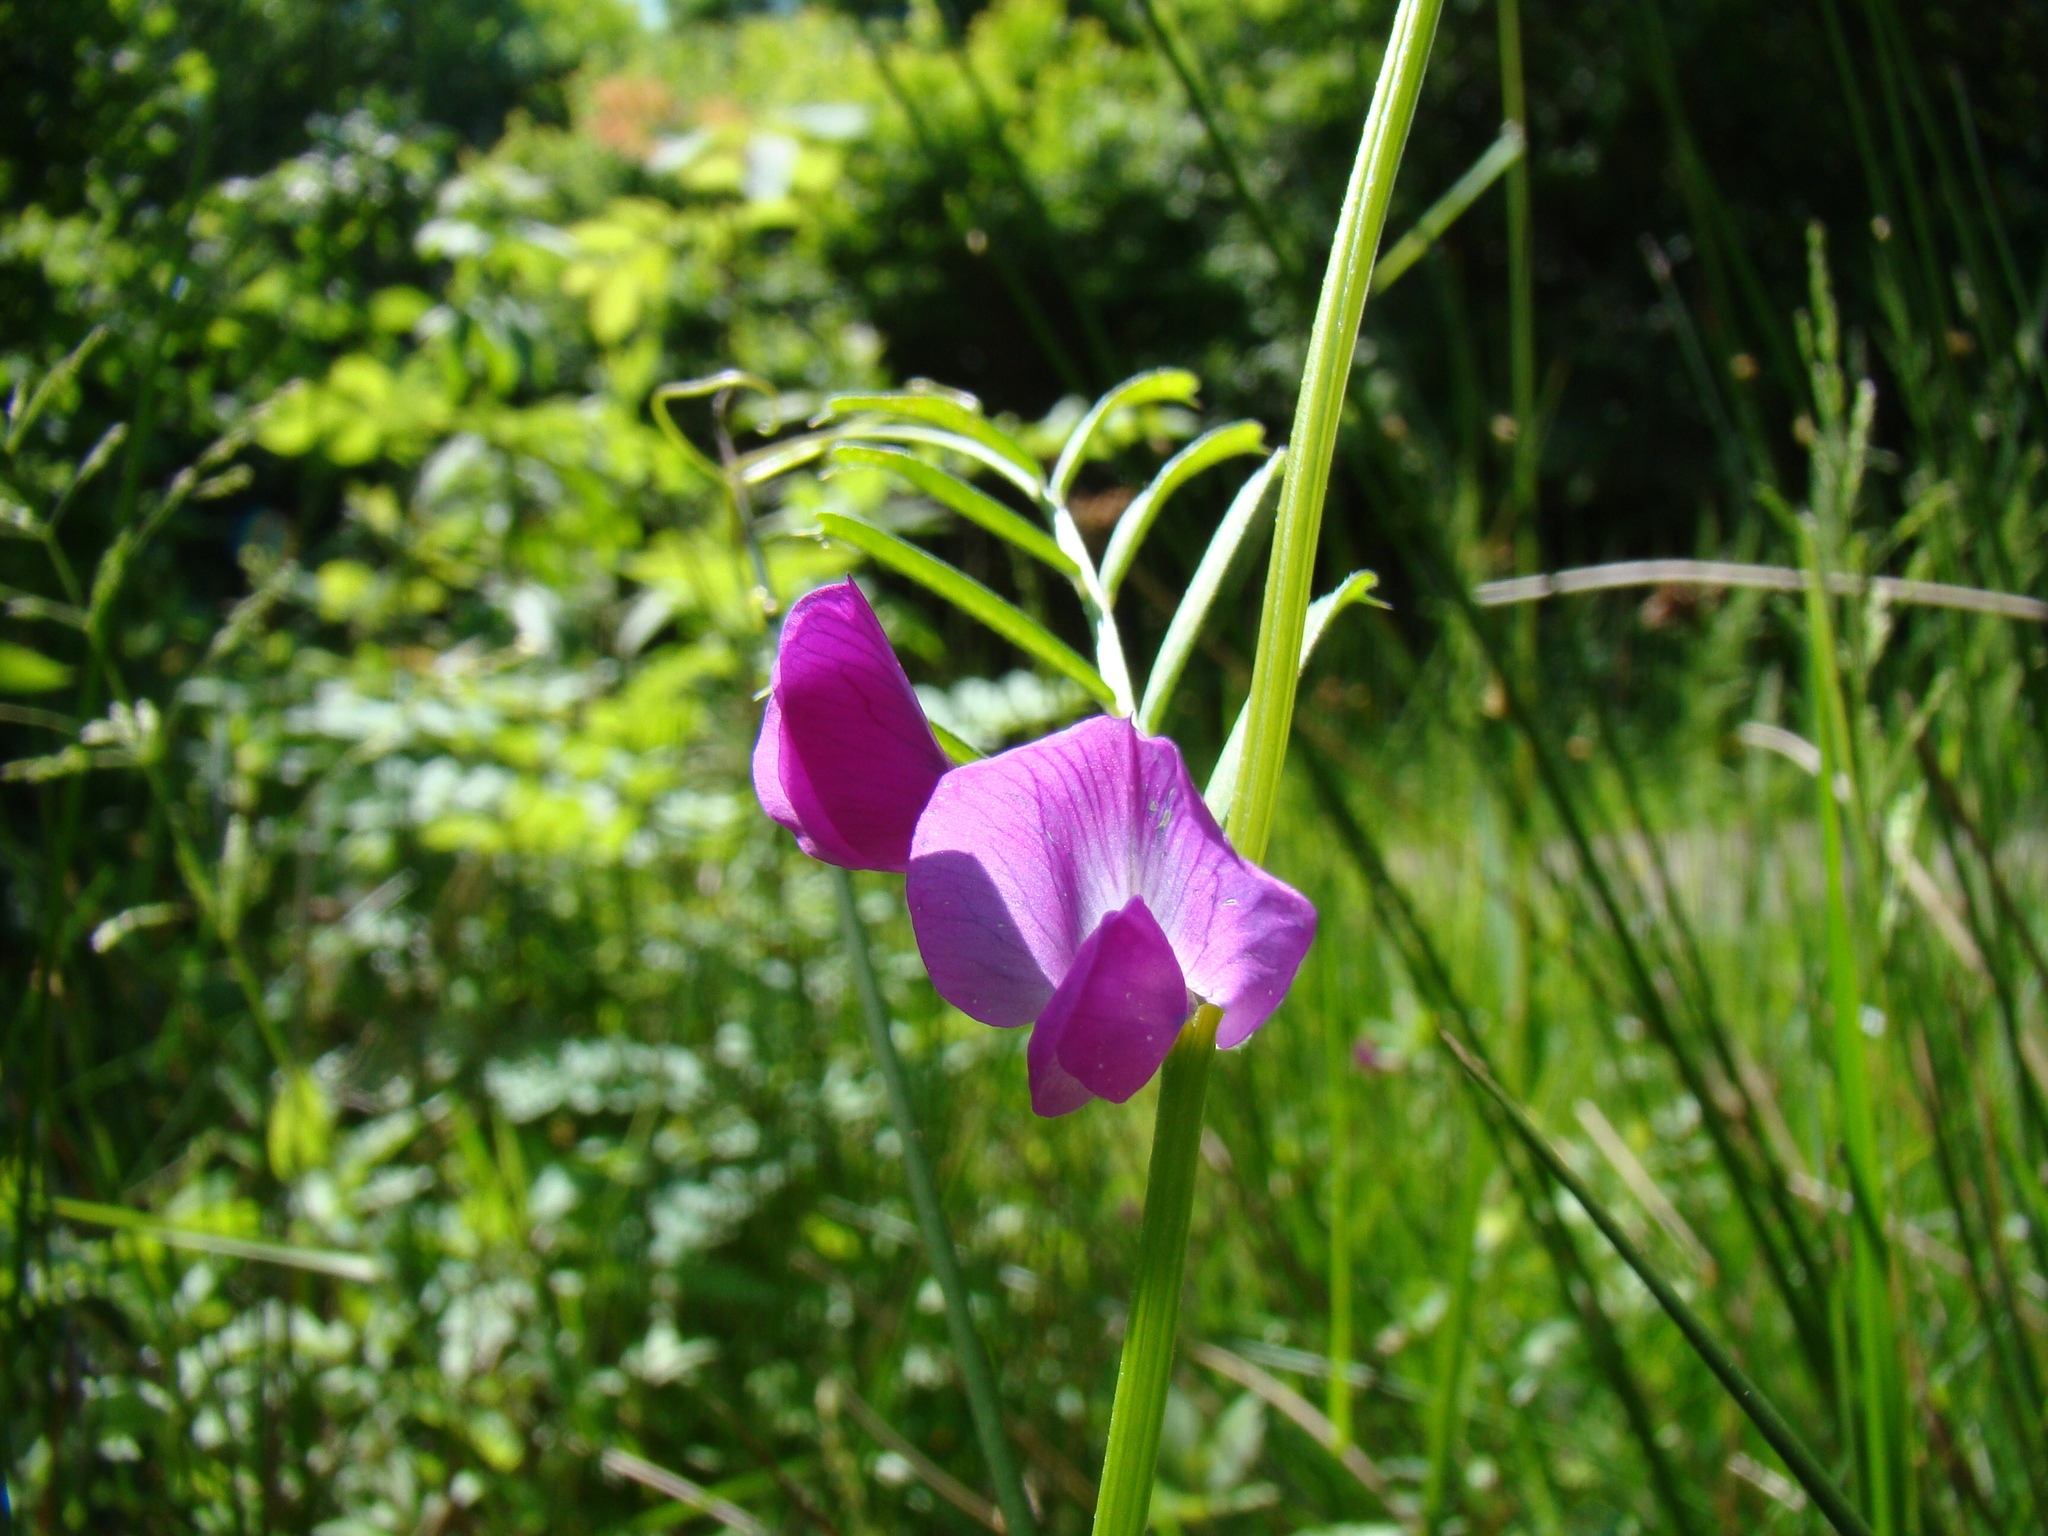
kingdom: Plantae
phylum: Tracheophyta
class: Magnoliopsida
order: Fabales
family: Fabaceae
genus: Vicia
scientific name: Vicia sativa
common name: Garden vetch
